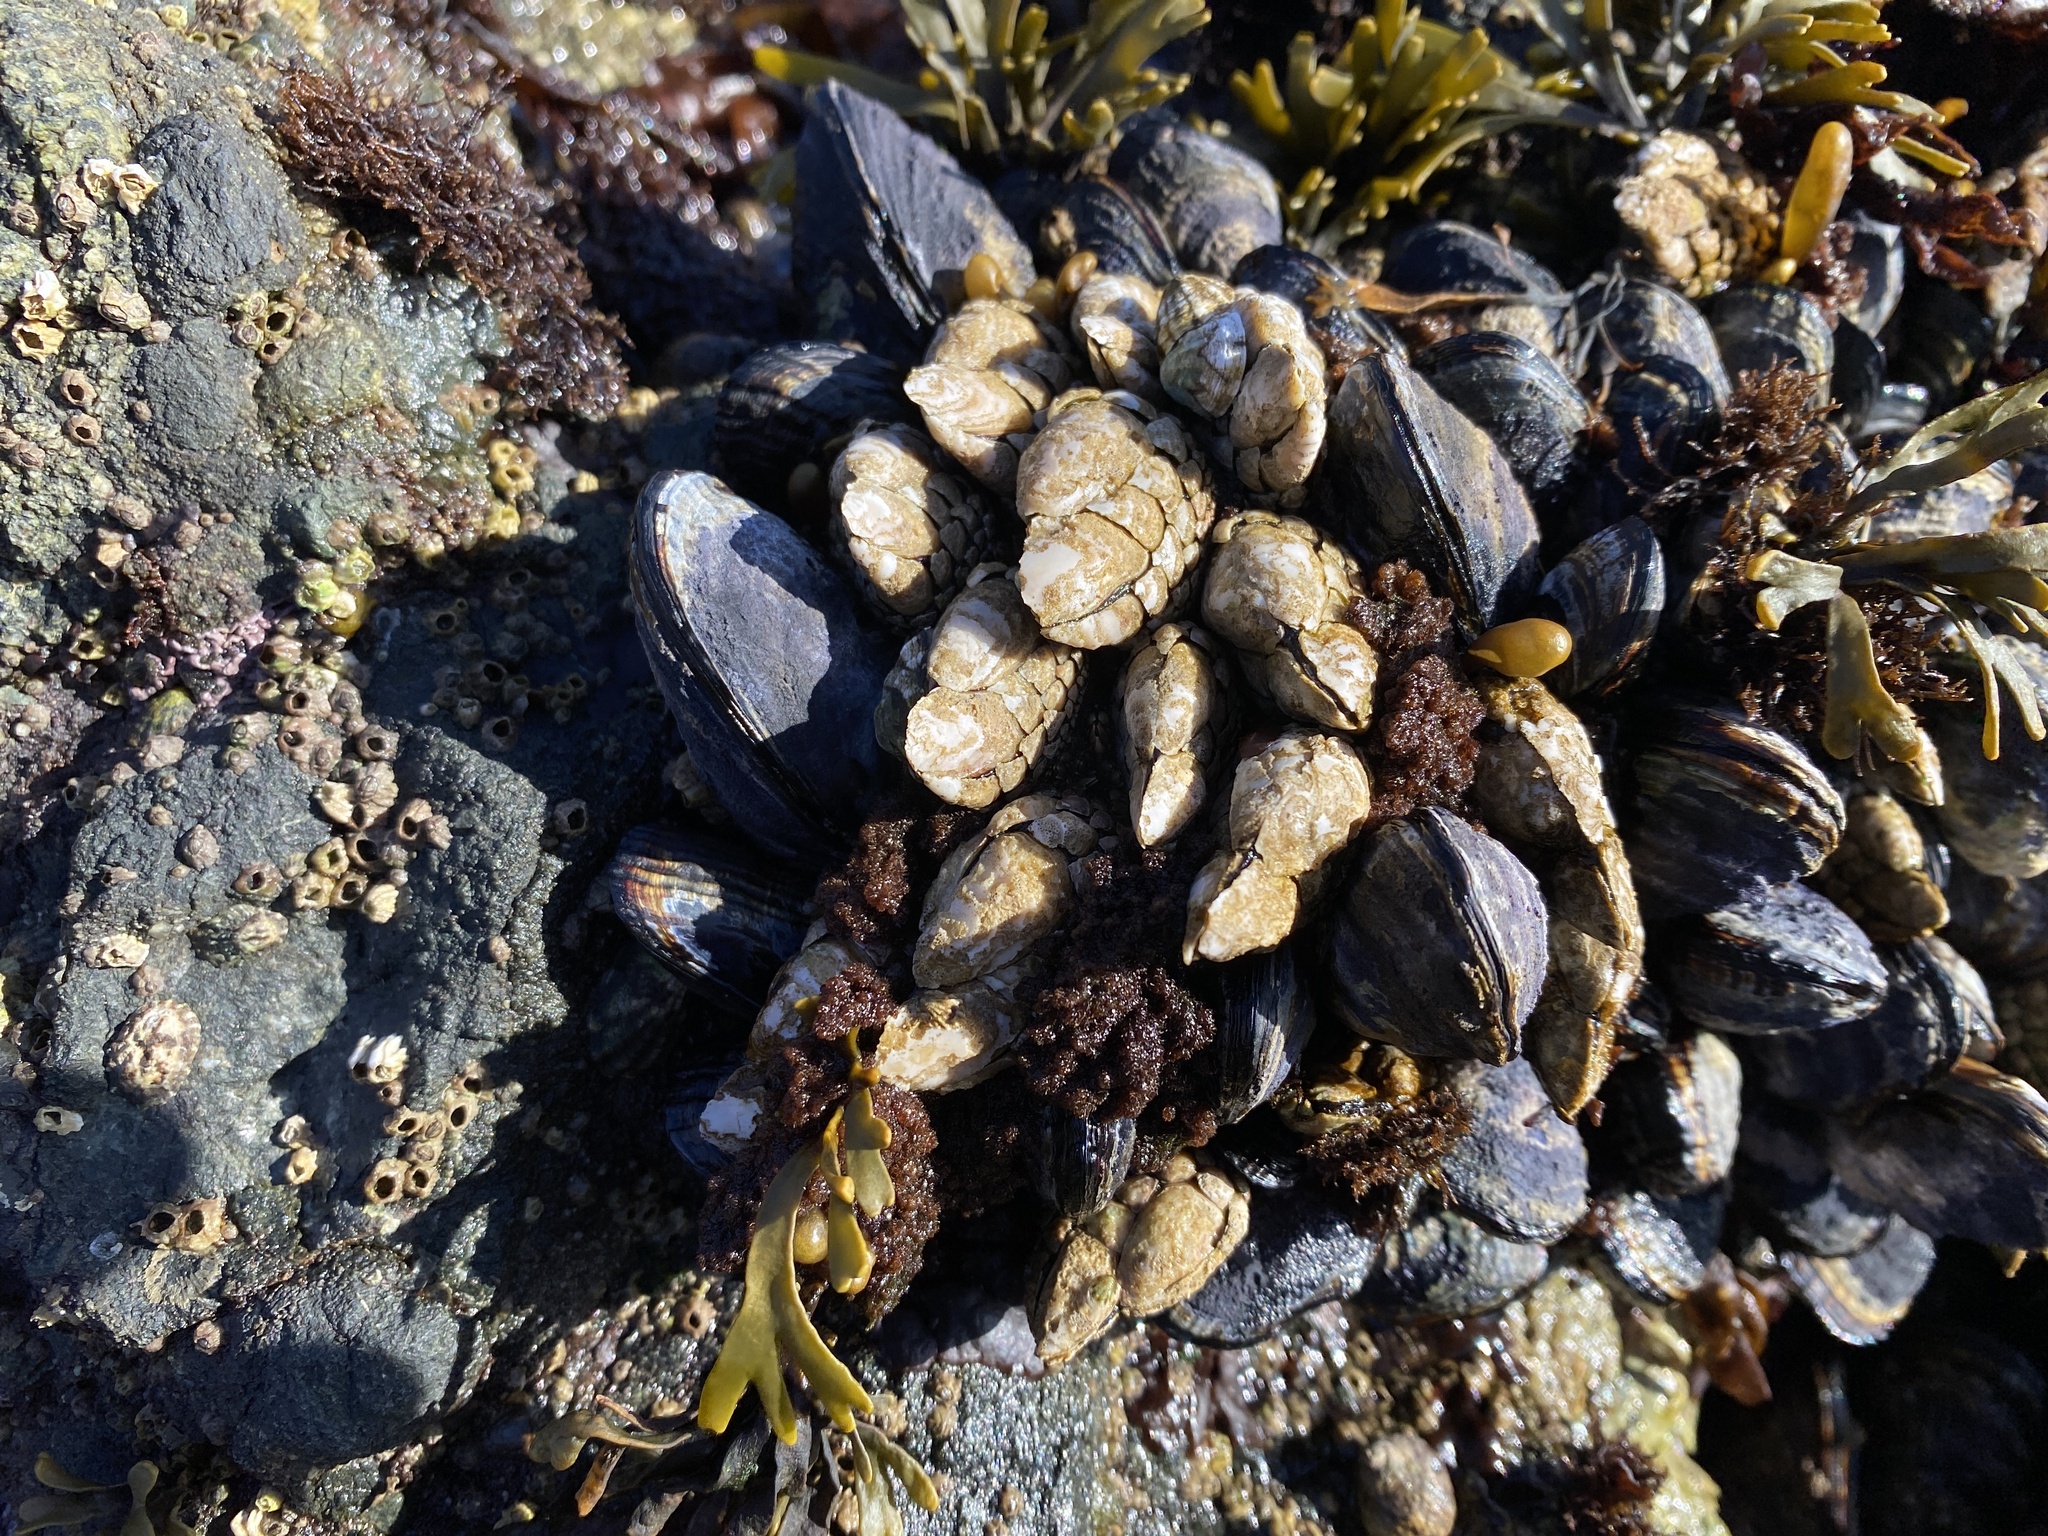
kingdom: Animalia
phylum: Arthropoda
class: Maxillopoda
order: Pedunculata
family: Pollicipedidae
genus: Pollicipes
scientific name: Pollicipes polymerus
